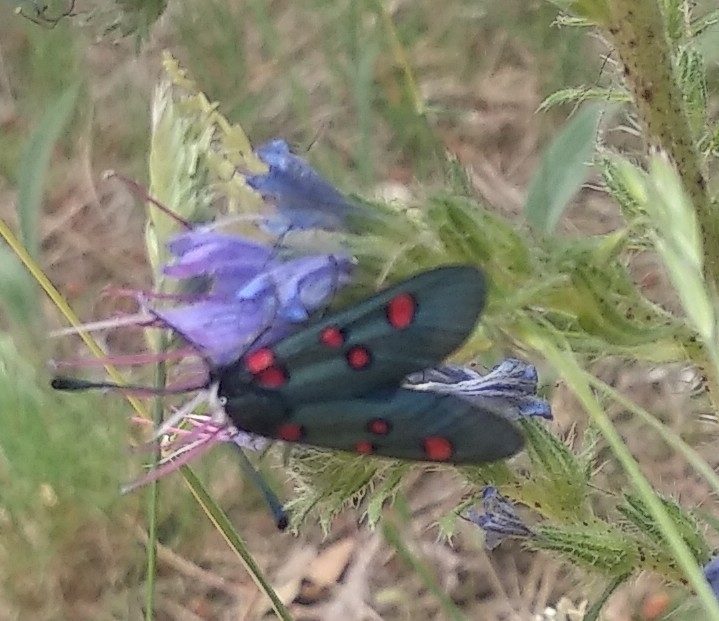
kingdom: Animalia
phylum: Arthropoda
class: Insecta
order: Lepidoptera
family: Zygaenidae
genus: Zygaena
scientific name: Zygaena lavandulae
